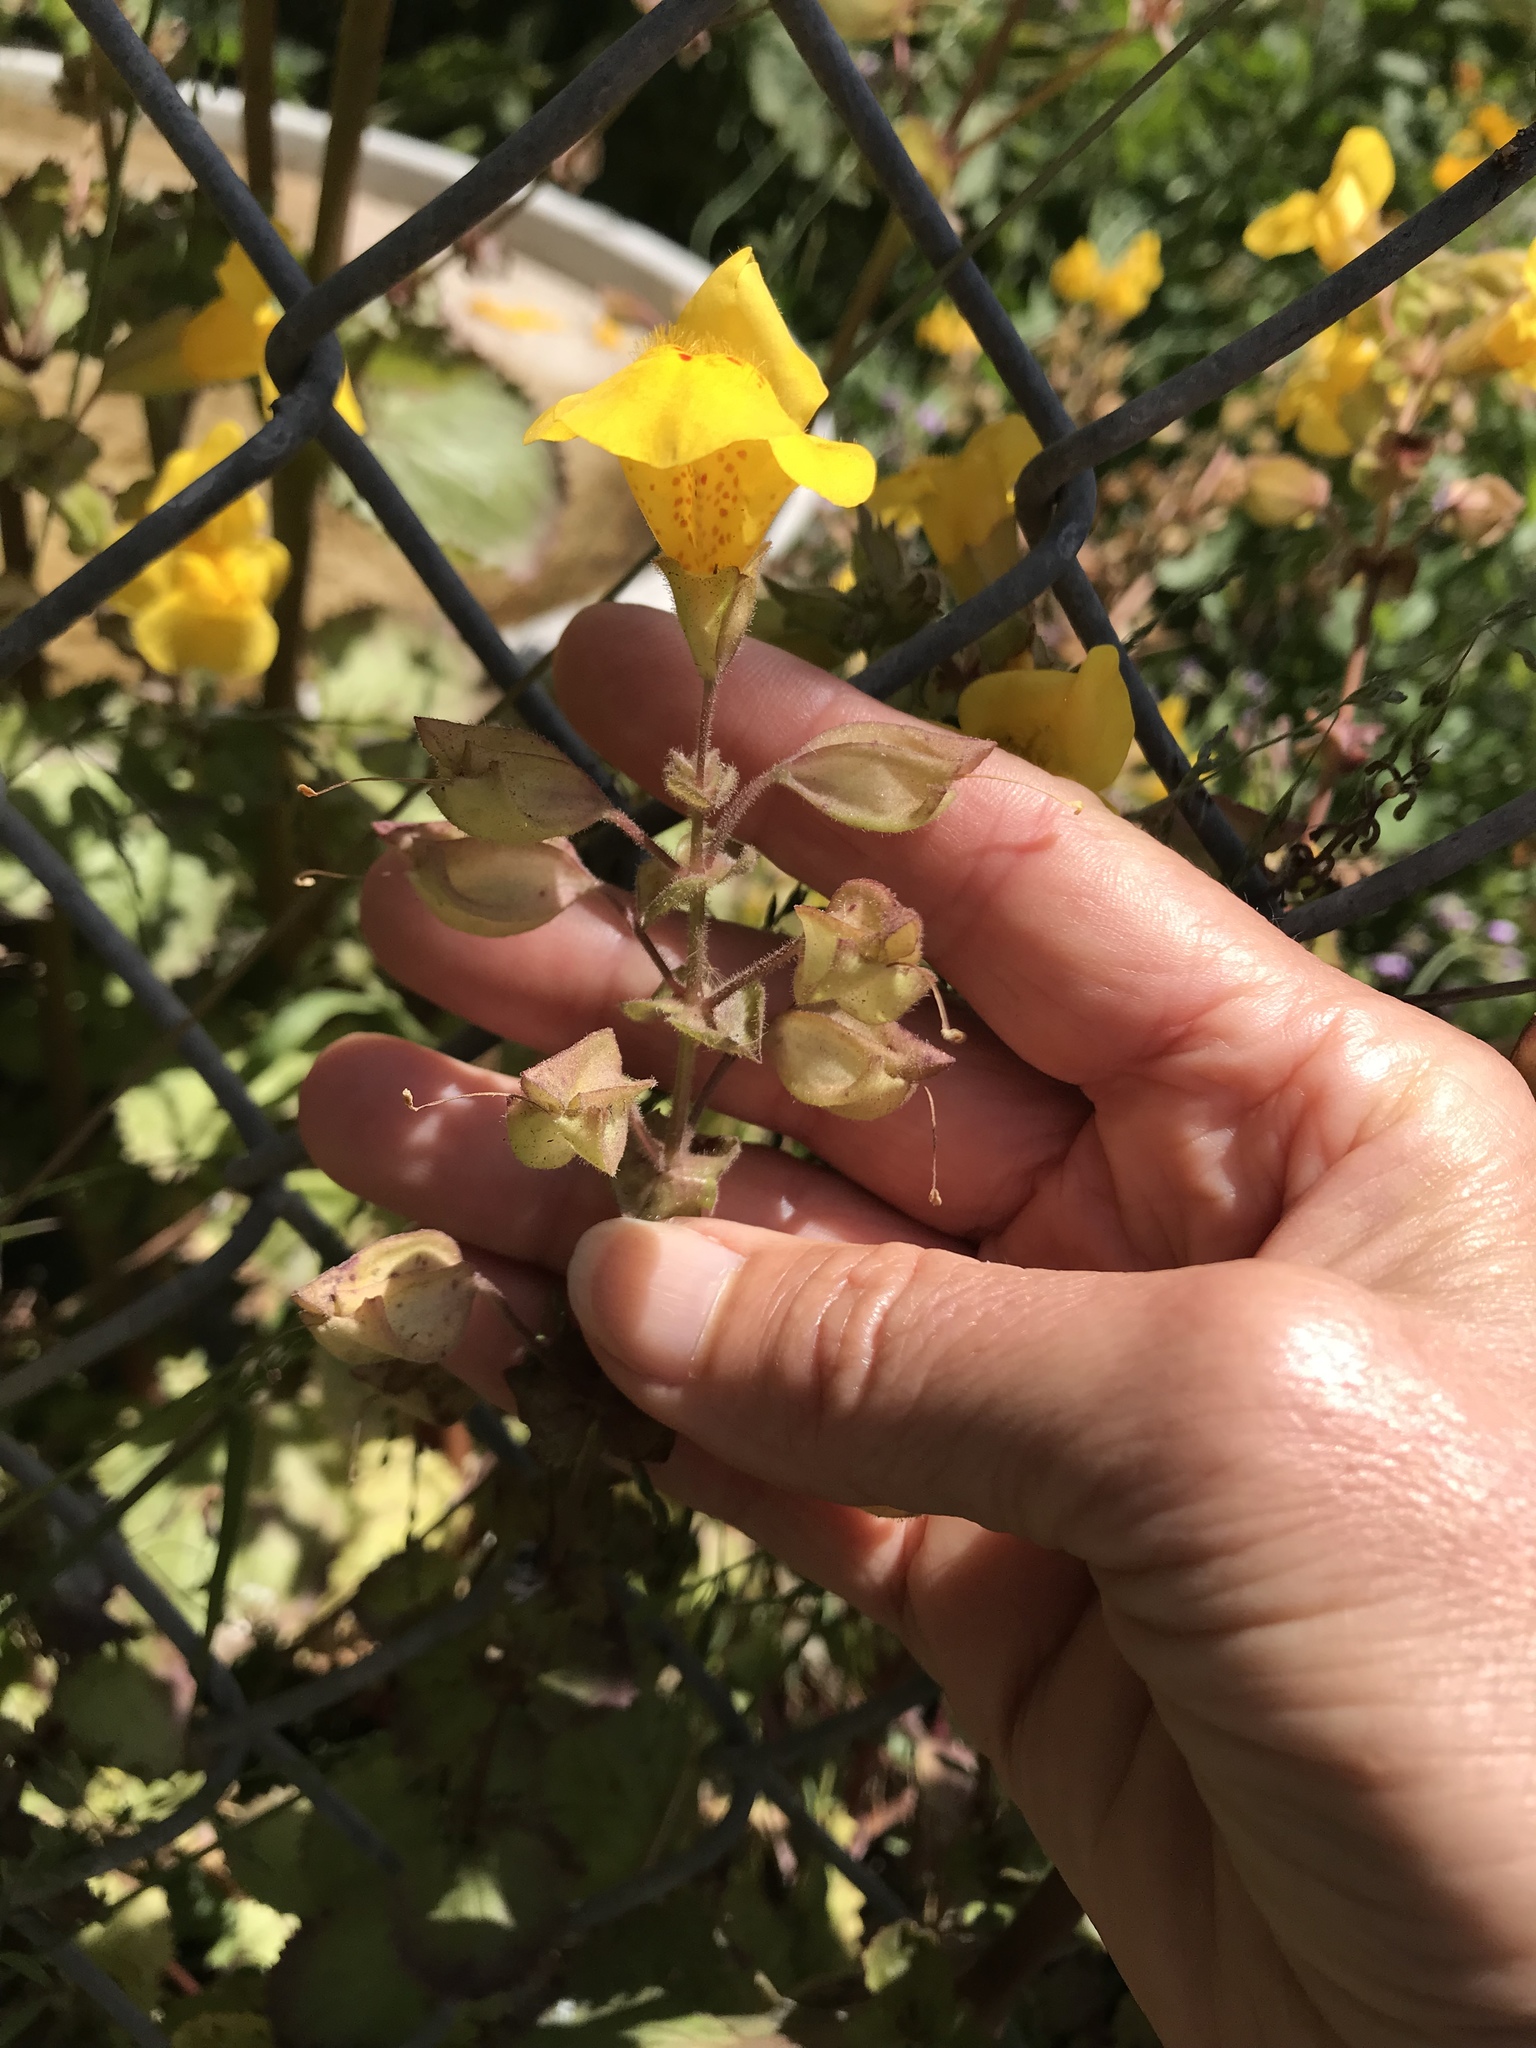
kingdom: Plantae
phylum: Tracheophyta
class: Magnoliopsida
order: Lamiales
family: Phrymaceae
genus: Erythranthe
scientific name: Erythranthe guttata
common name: Monkeyflower
